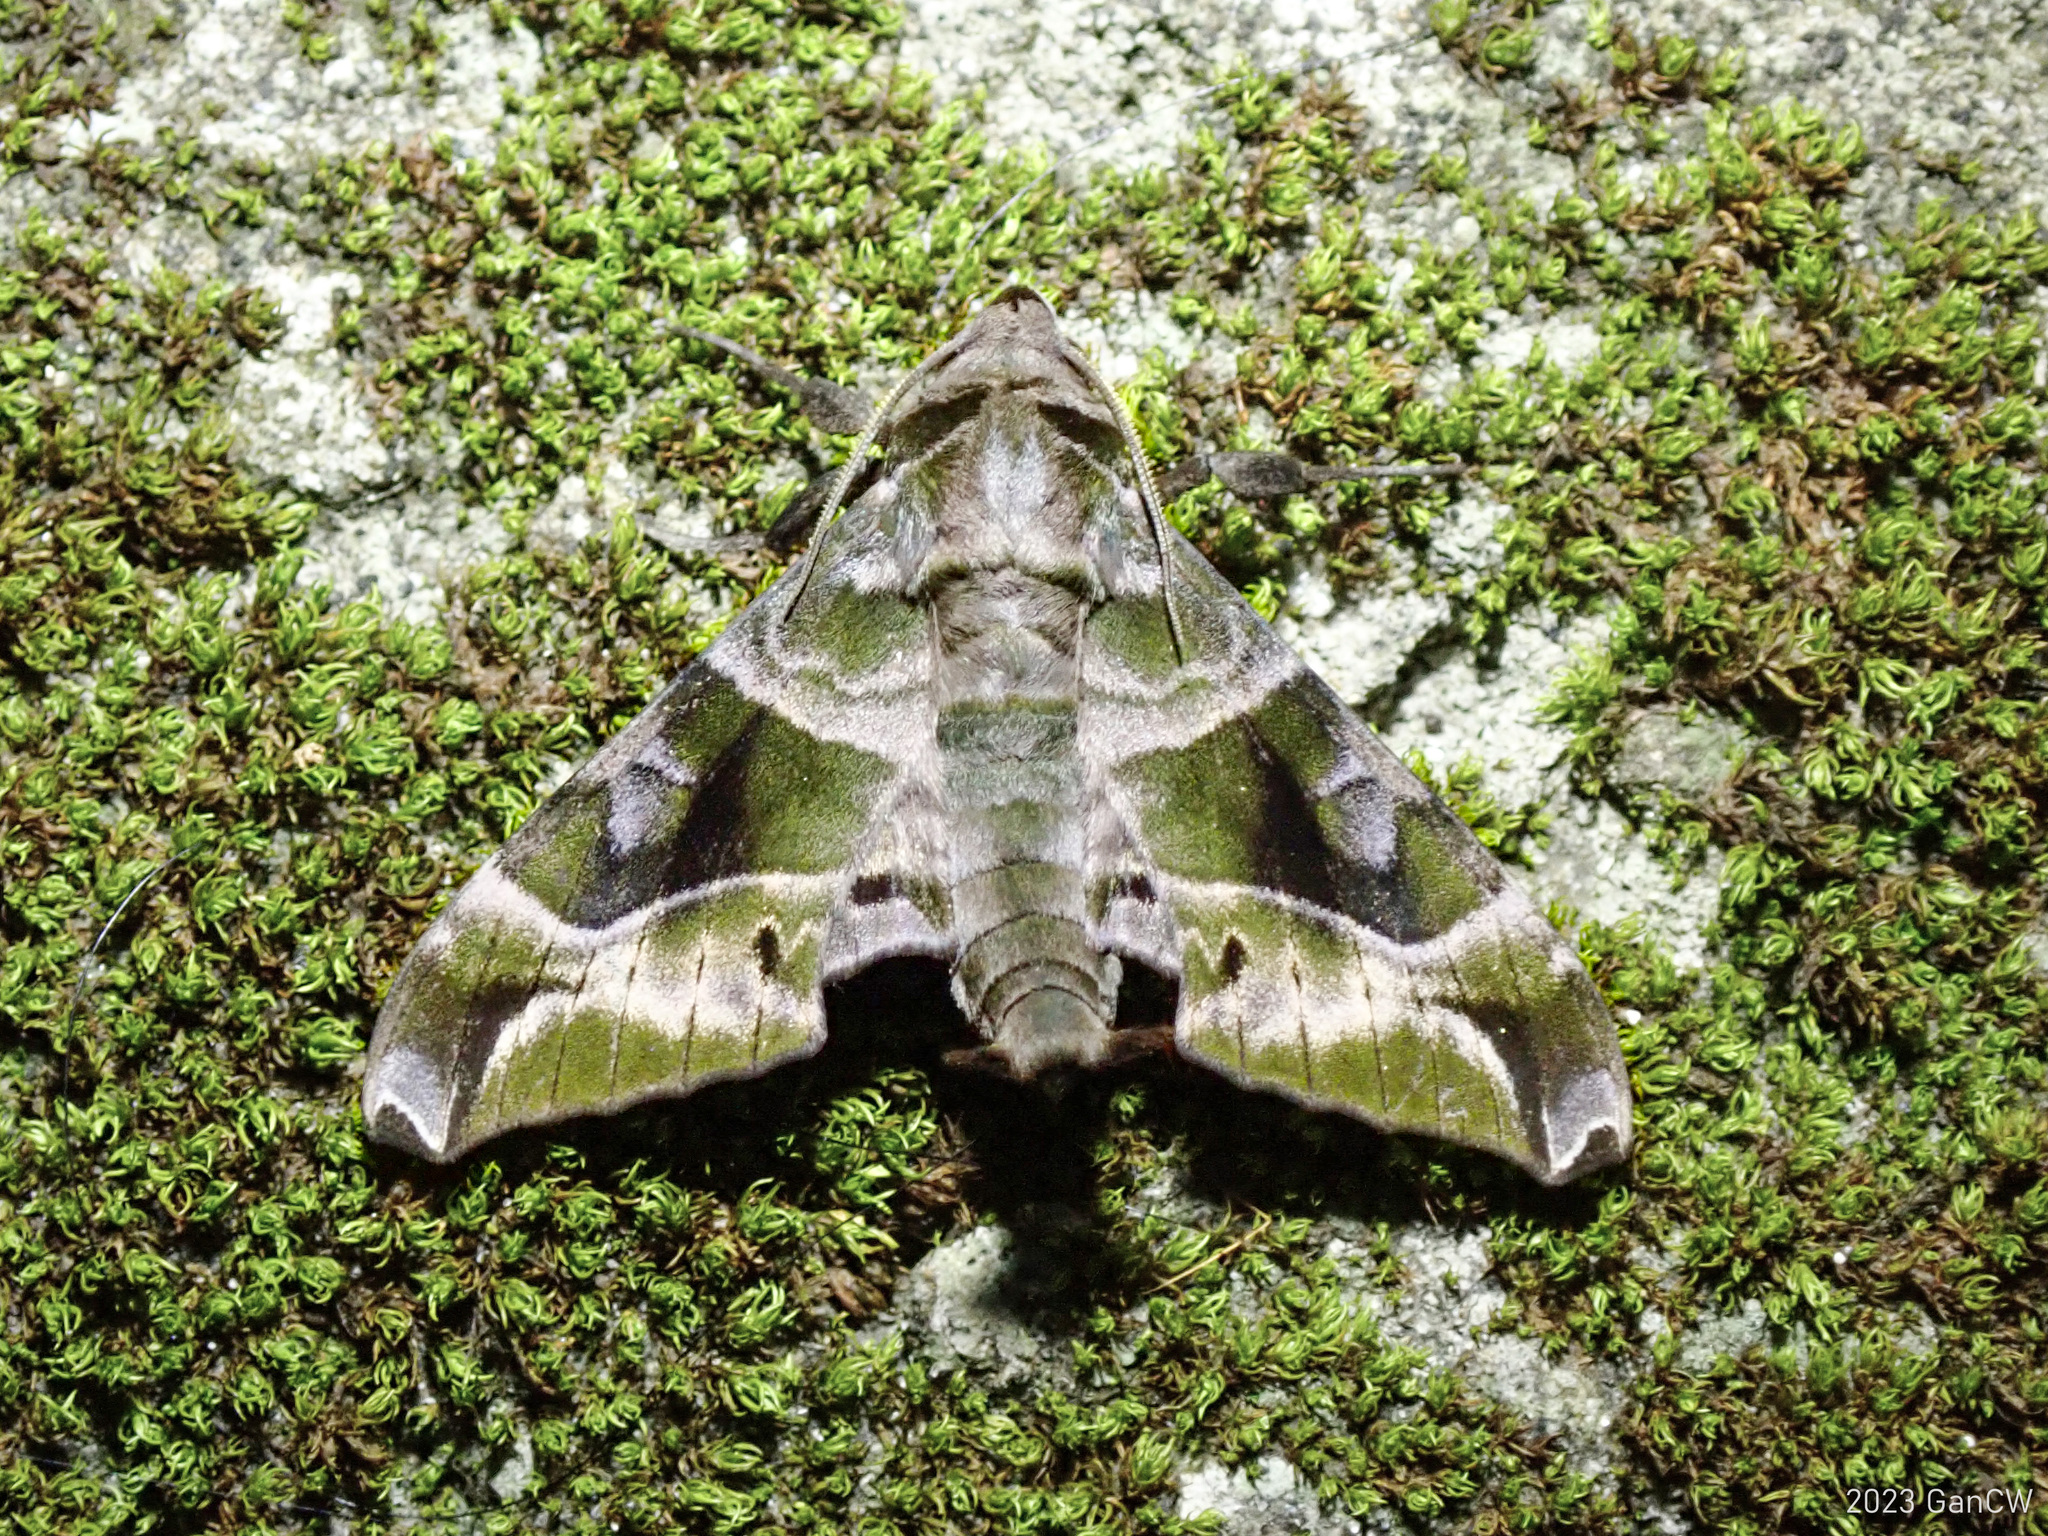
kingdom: Animalia
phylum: Arthropoda
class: Insecta
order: Lepidoptera
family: Sphingidae
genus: Craspedortha
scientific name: Craspedortha porphyria
